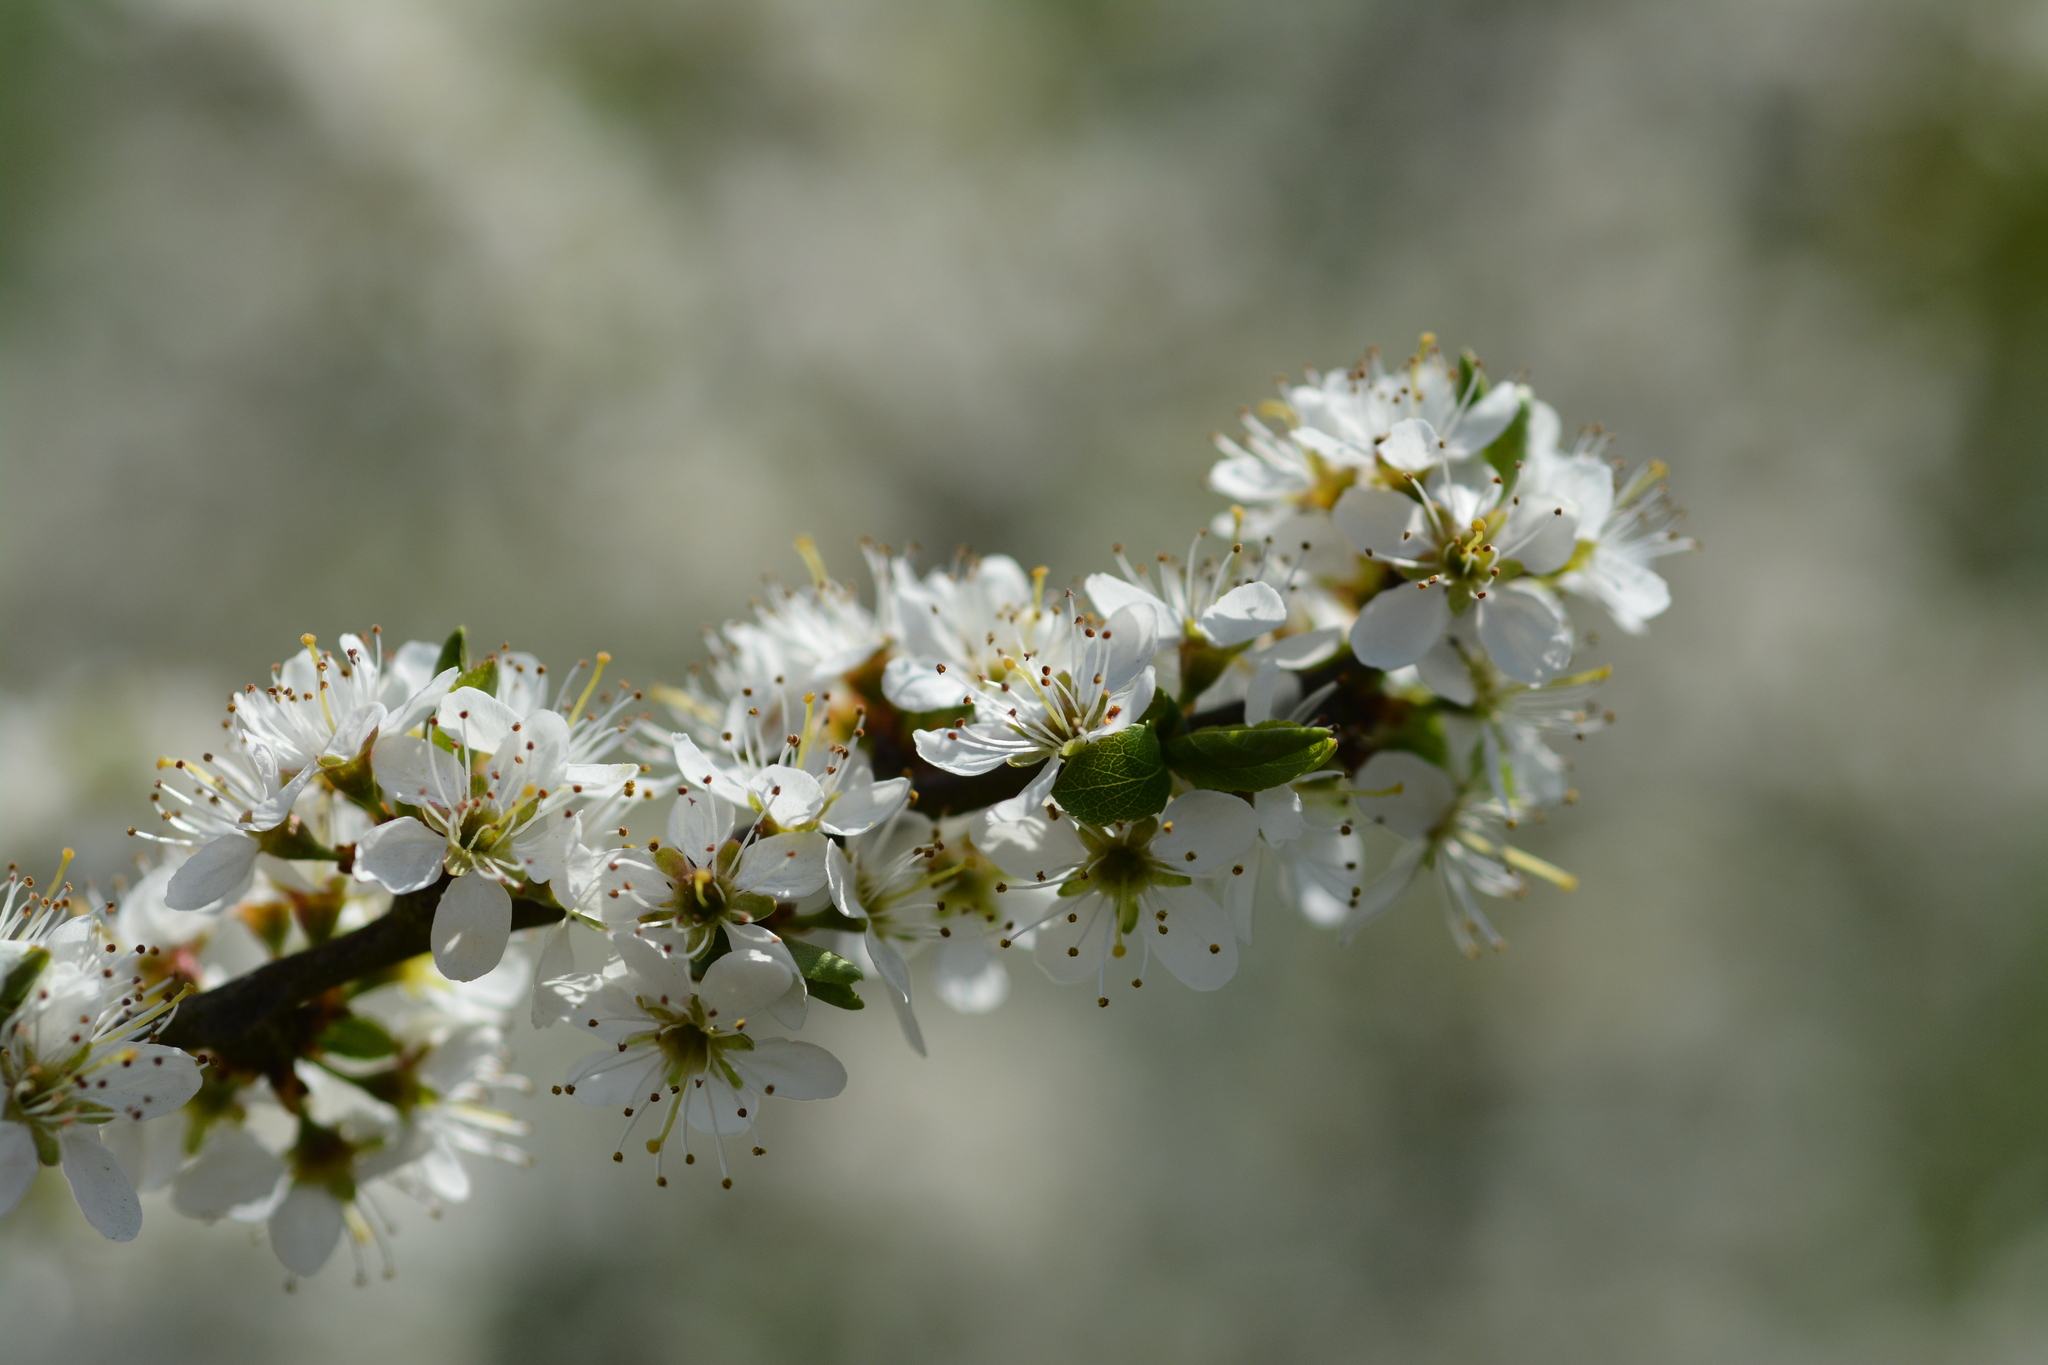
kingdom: Plantae
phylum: Tracheophyta
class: Magnoliopsida
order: Rosales
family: Rosaceae
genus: Prunus
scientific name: Prunus spinosa
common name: Blackthorn
